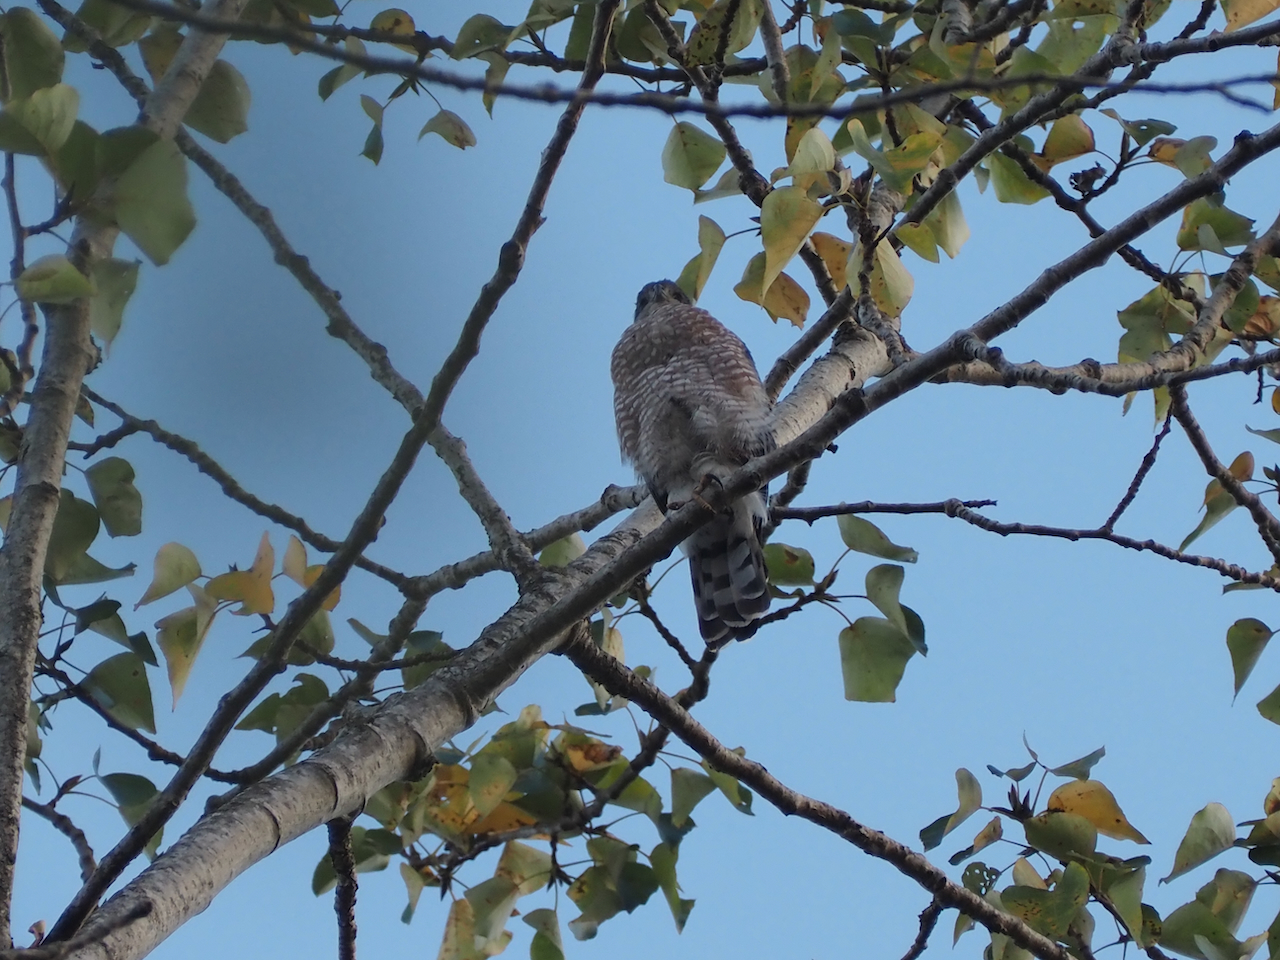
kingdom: Animalia
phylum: Chordata
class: Aves
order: Accipitriformes
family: Accipitridae
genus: Accipiter
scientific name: Accipiter cooperii
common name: Cooper's hawk
